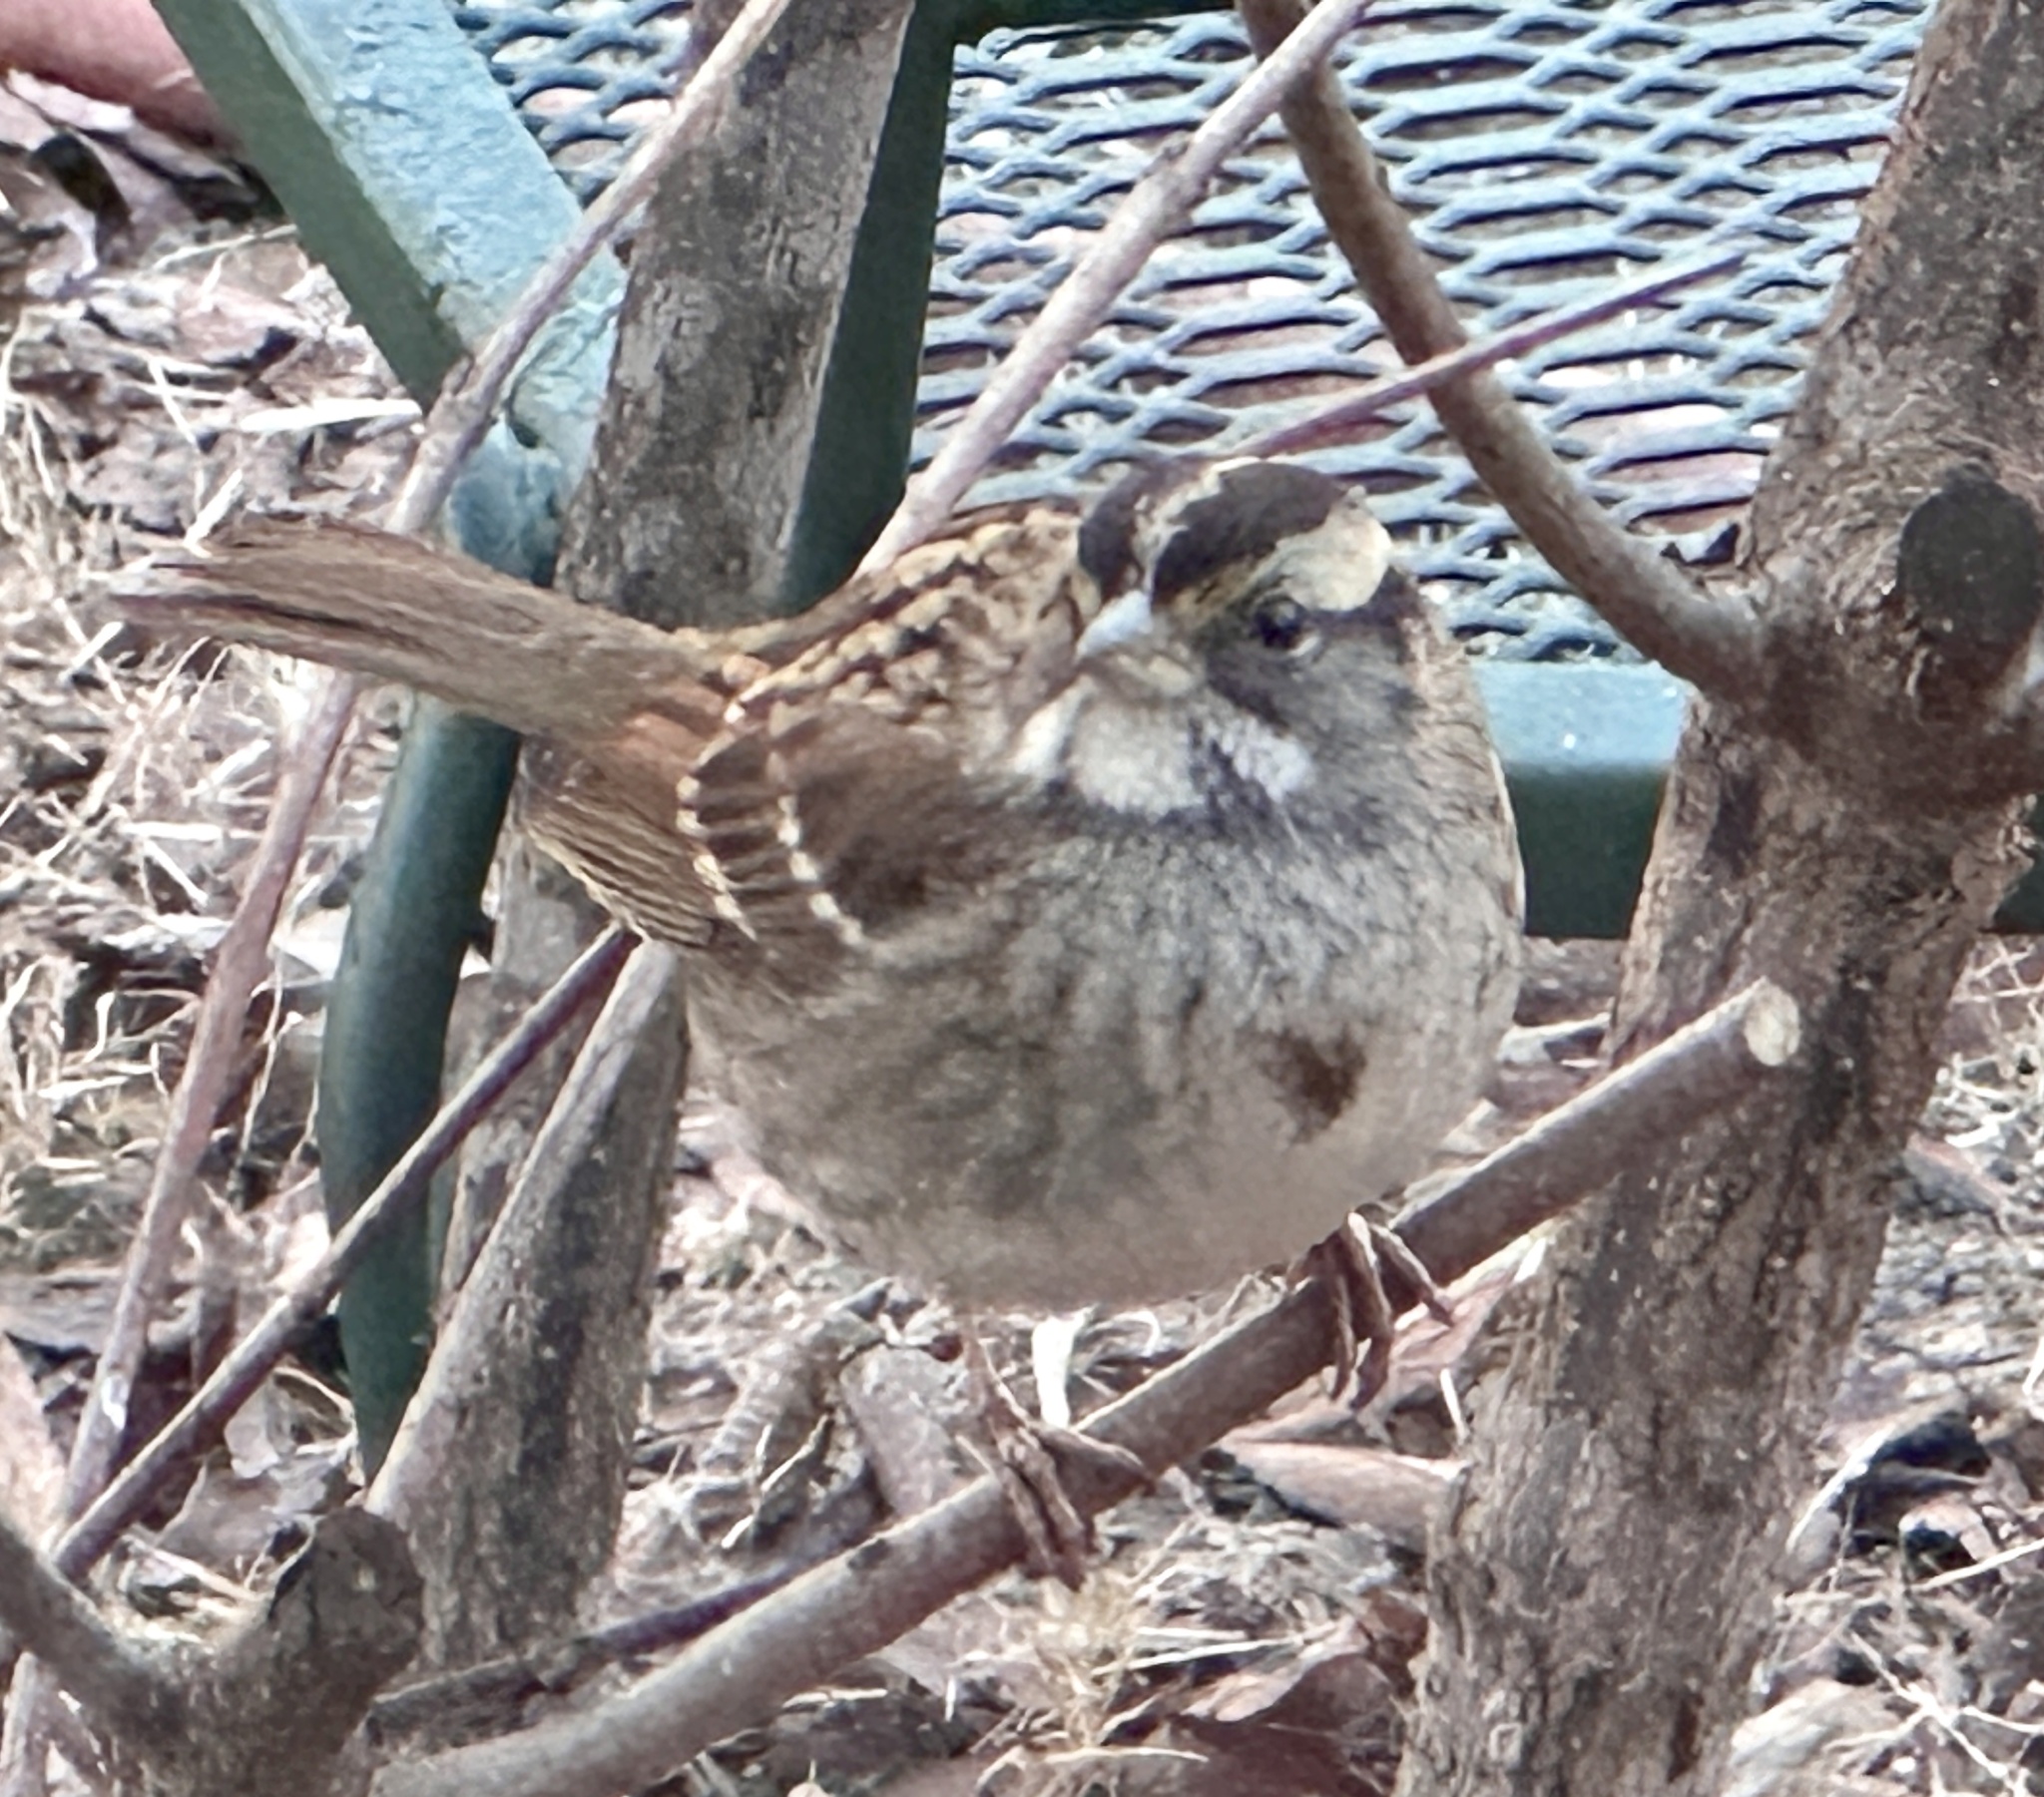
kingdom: Animalia
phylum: Chordata
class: Aves
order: Passeriformes
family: Passerellidae
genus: Zonotrichia
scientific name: Zonotrichia albicollis
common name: White-throated sparrow
